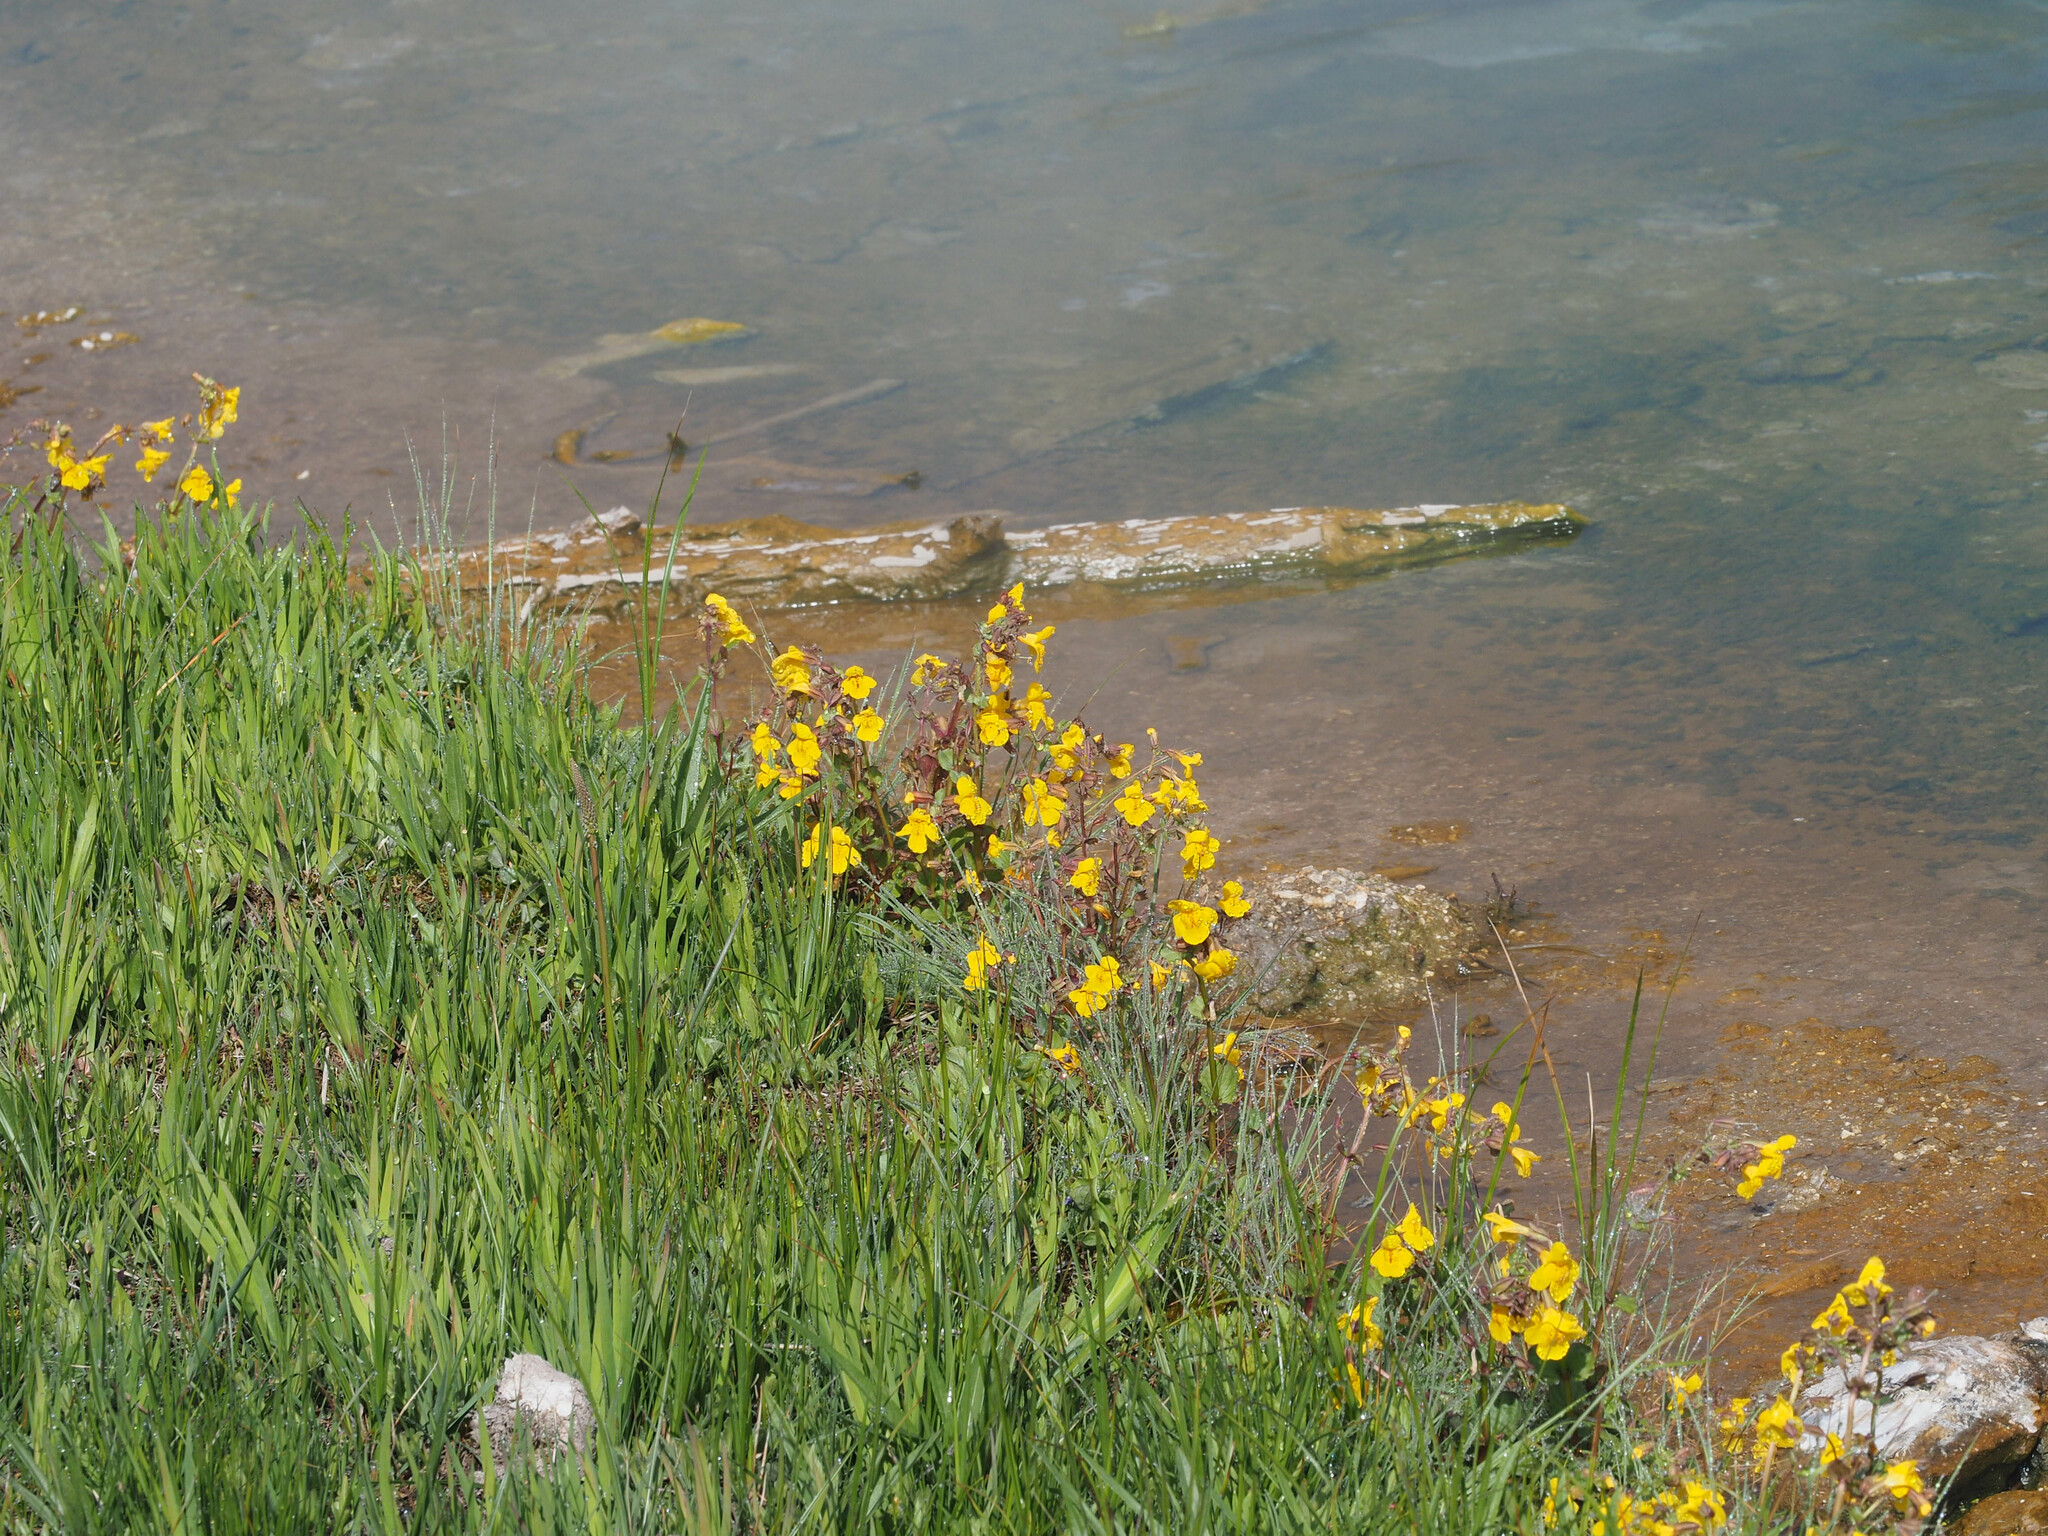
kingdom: Plantae
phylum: Tracheophyta
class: Magnoliopsida
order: Lamiales
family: Phrymaceae
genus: Erythranthe
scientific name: Erythranthe guttata
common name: Monkeyflower
